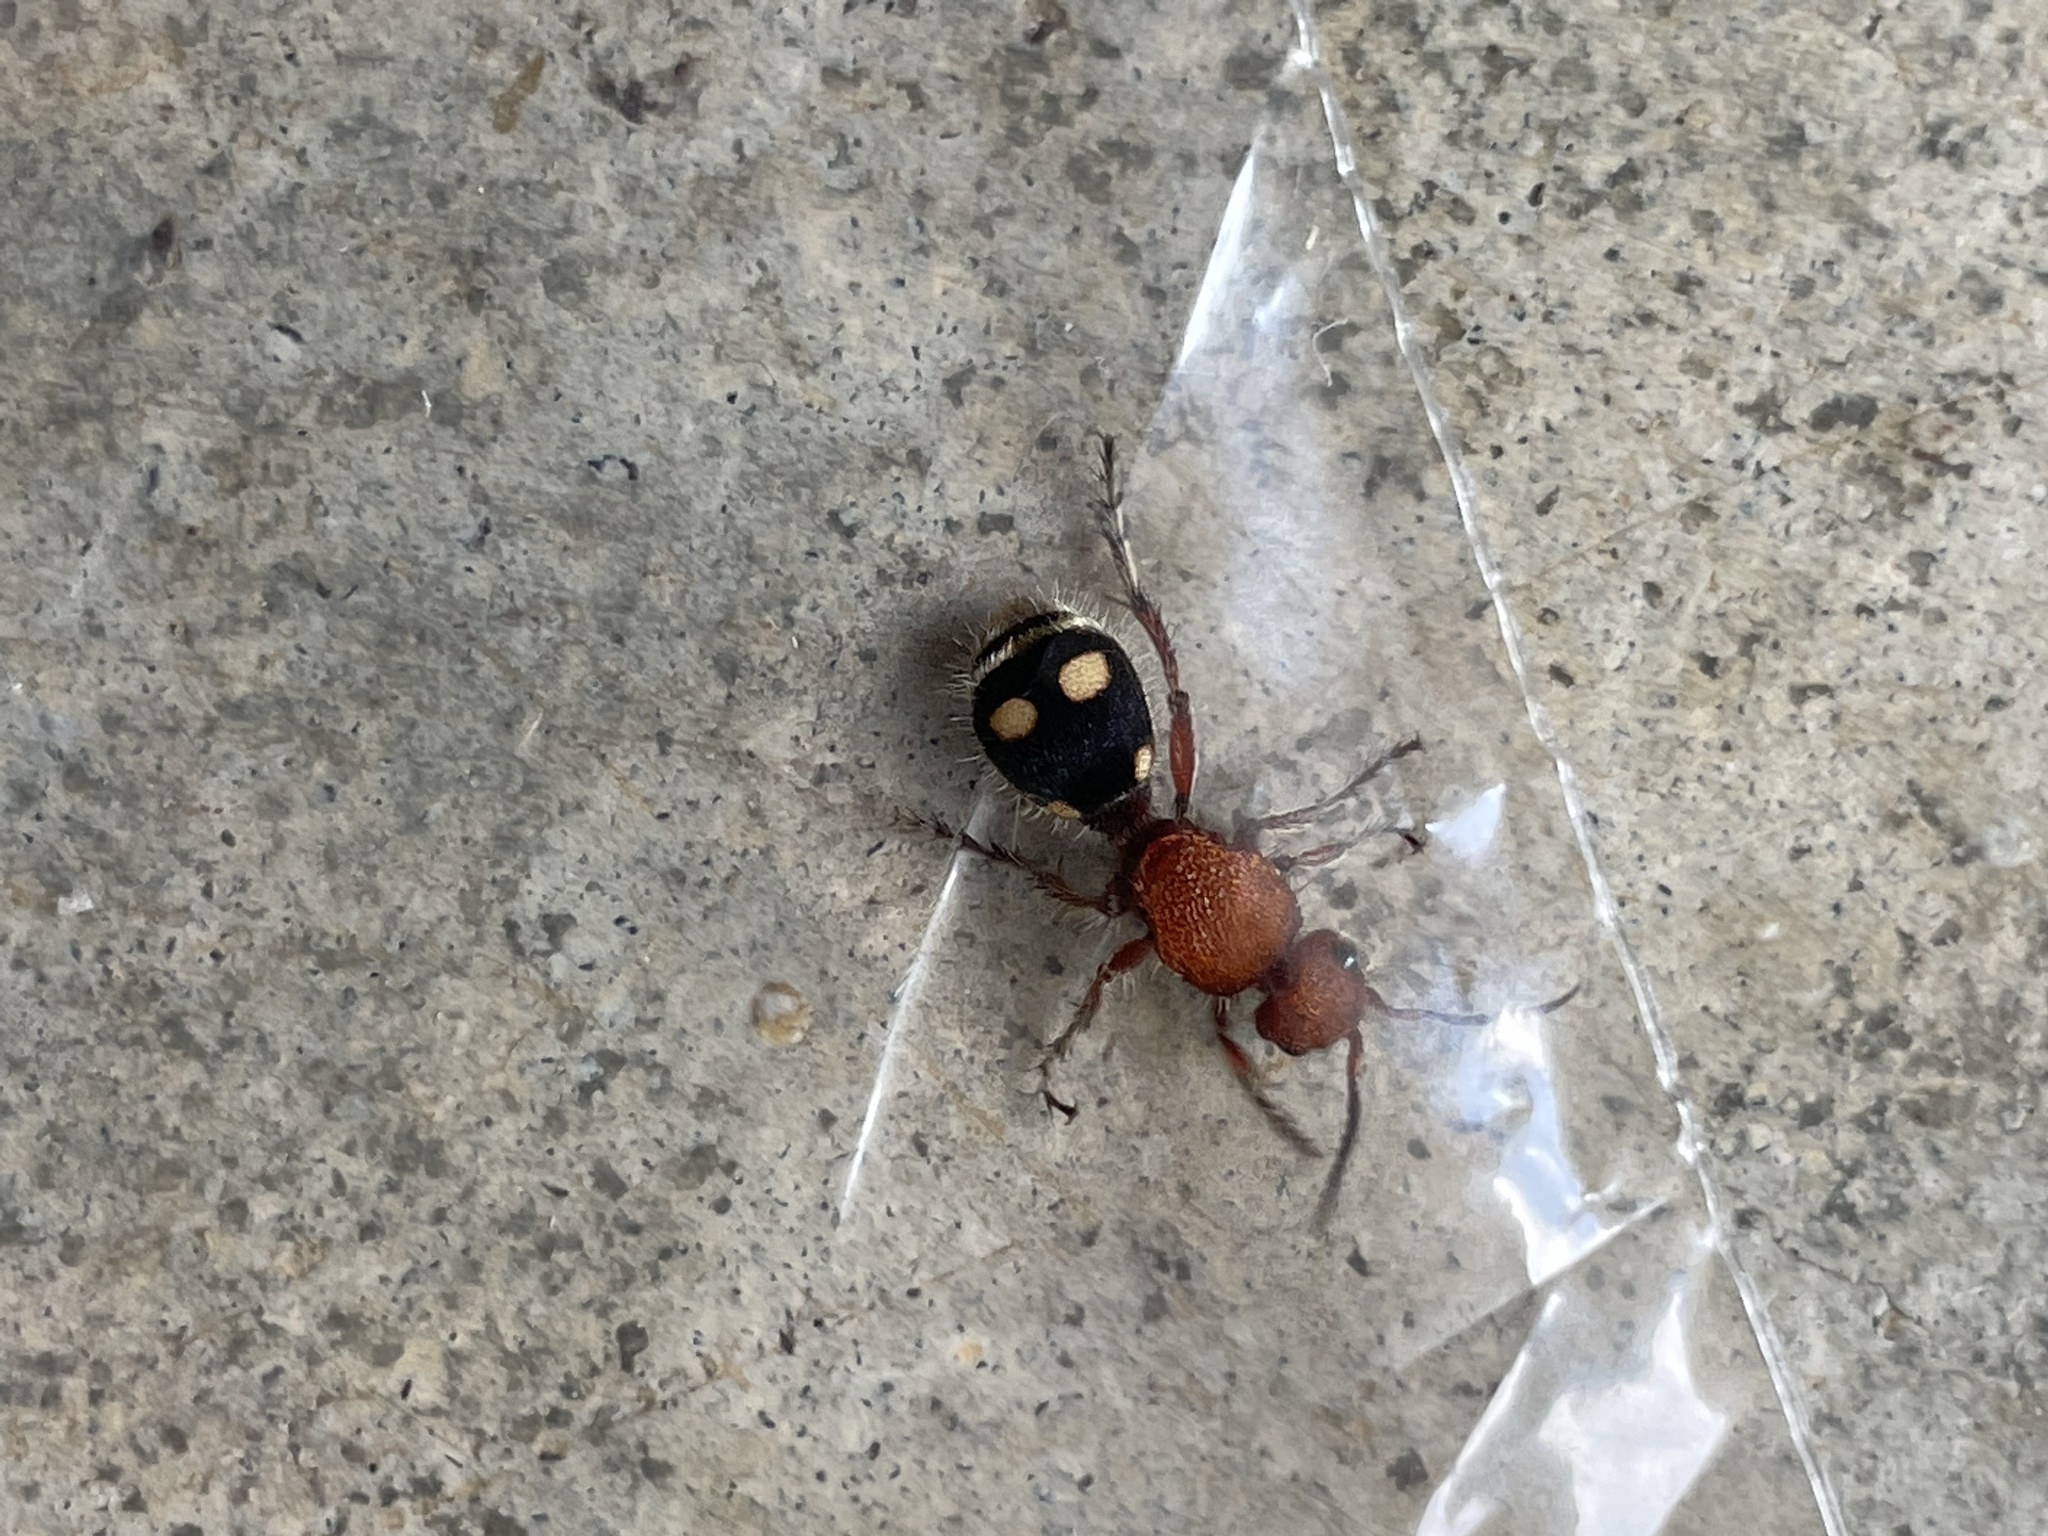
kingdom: Animalia
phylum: Arthropoda
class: Insecta
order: Hymenoptera
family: Mutillidae
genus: Dasymutilla
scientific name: Dasymutilla
